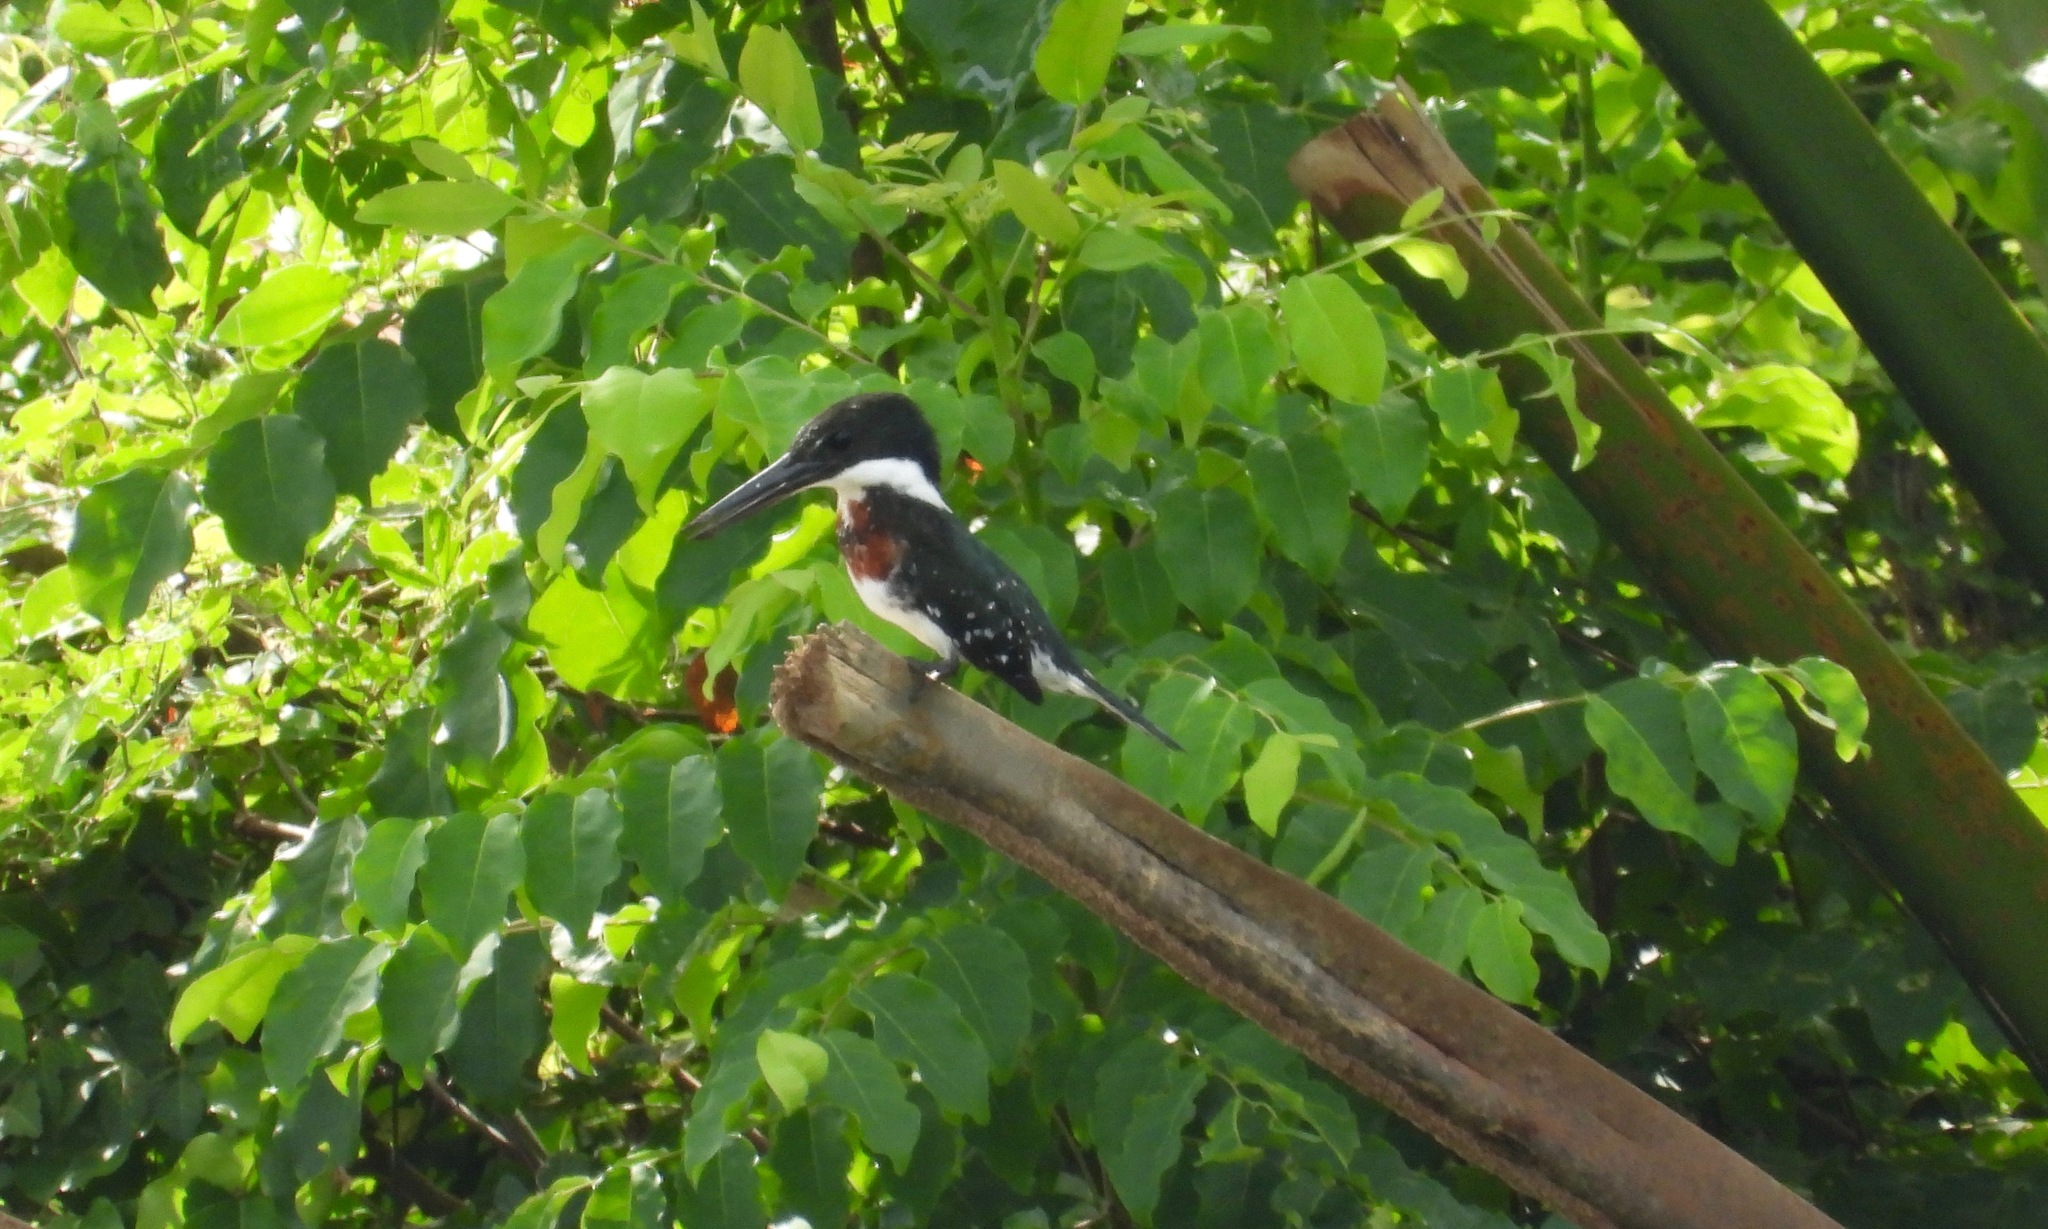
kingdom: Animalia
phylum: Chordata
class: Aves
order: Coraciiformes
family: Alcedinidae
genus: Chloroceryle
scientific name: Chloroceryle americana
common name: Green kingfisher
